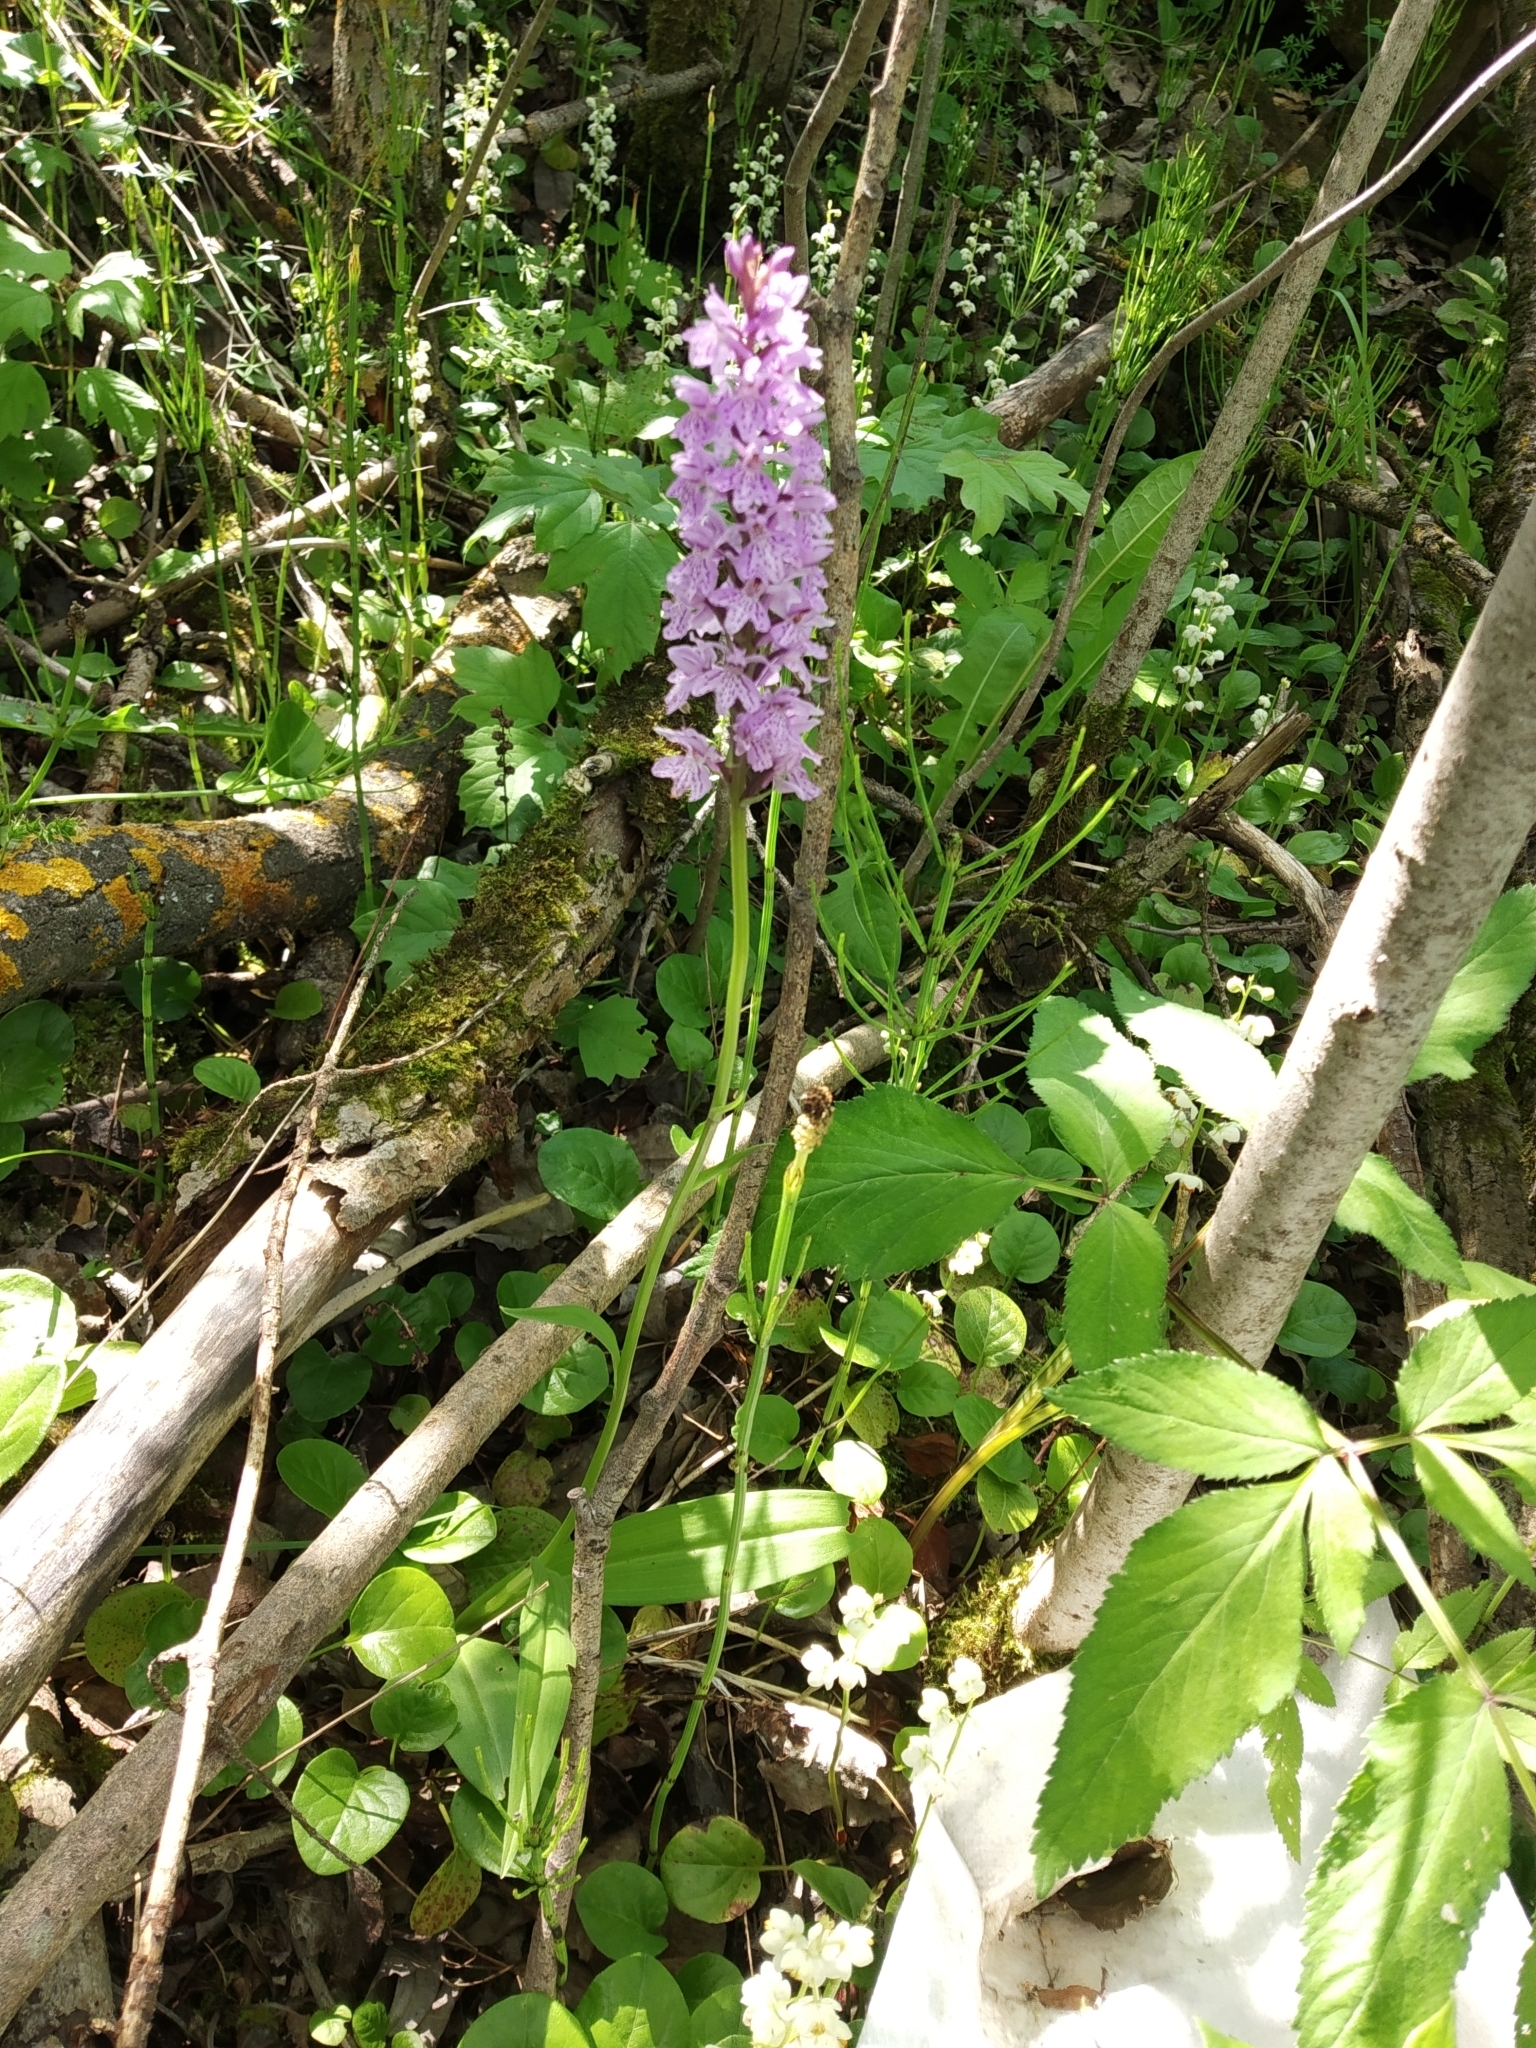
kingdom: Plantae
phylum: Tracheophyta
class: Liliopsida
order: Asparagales
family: Orchidaceae
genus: Dactylorhiza
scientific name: Dactylorhiza maculata
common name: Heath spotted-orchid
